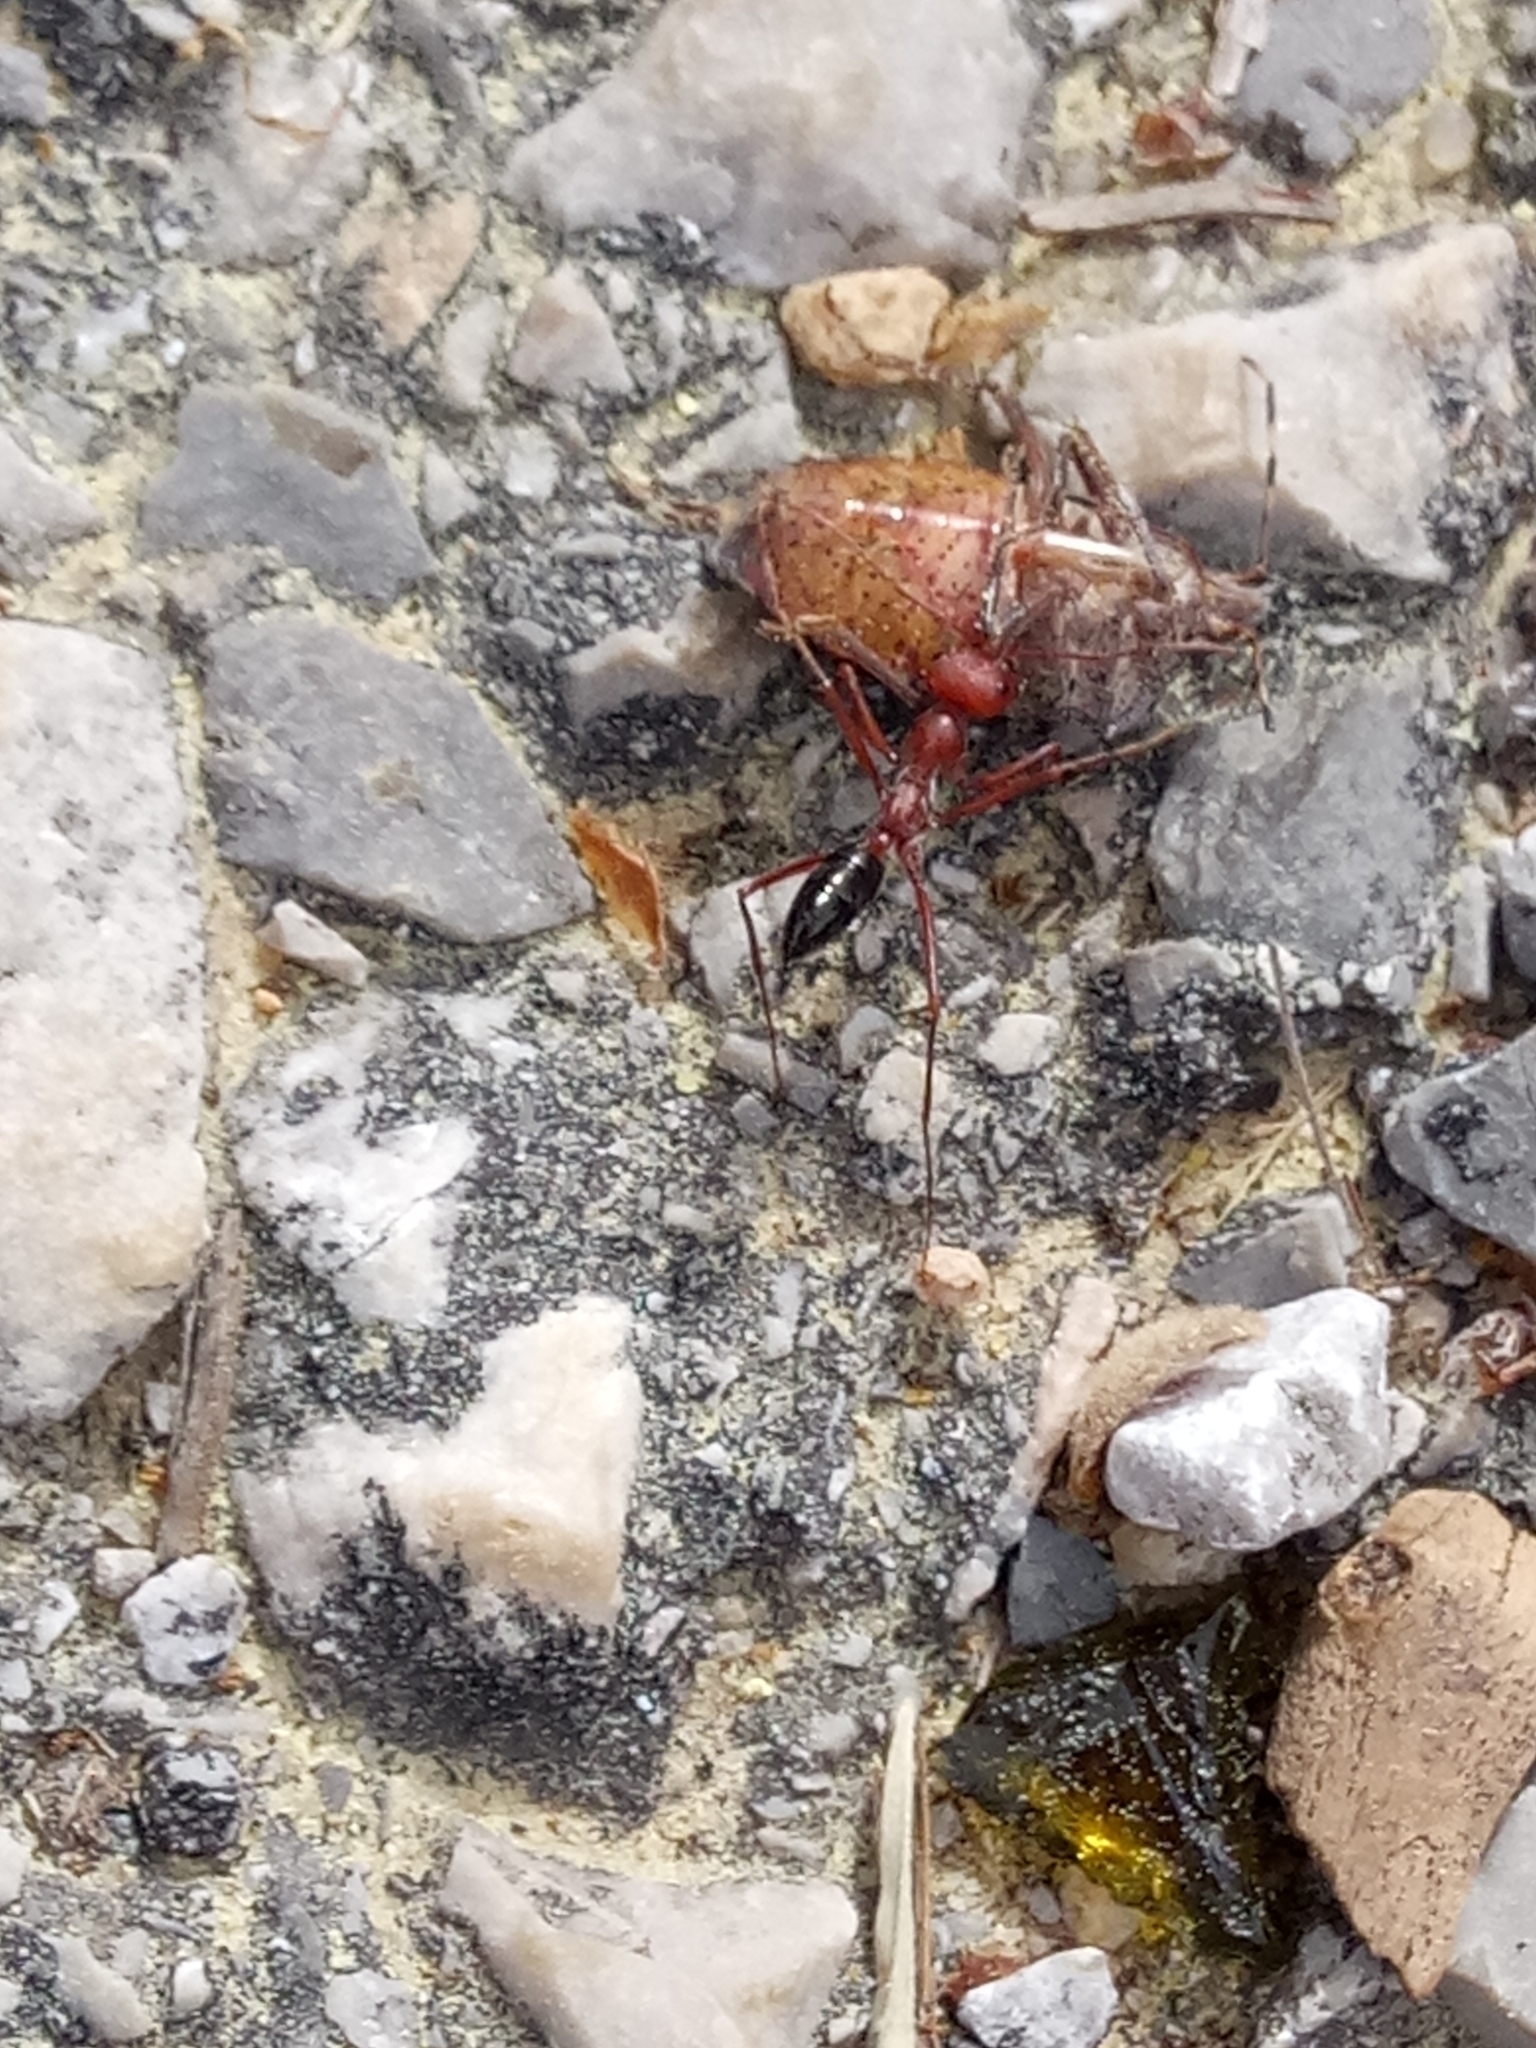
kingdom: Animalia
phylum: Arthropoda
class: Insecta
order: Hymenoptera
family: Formicidae
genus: Cataglyphis
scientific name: Cataglyphis bicolor
